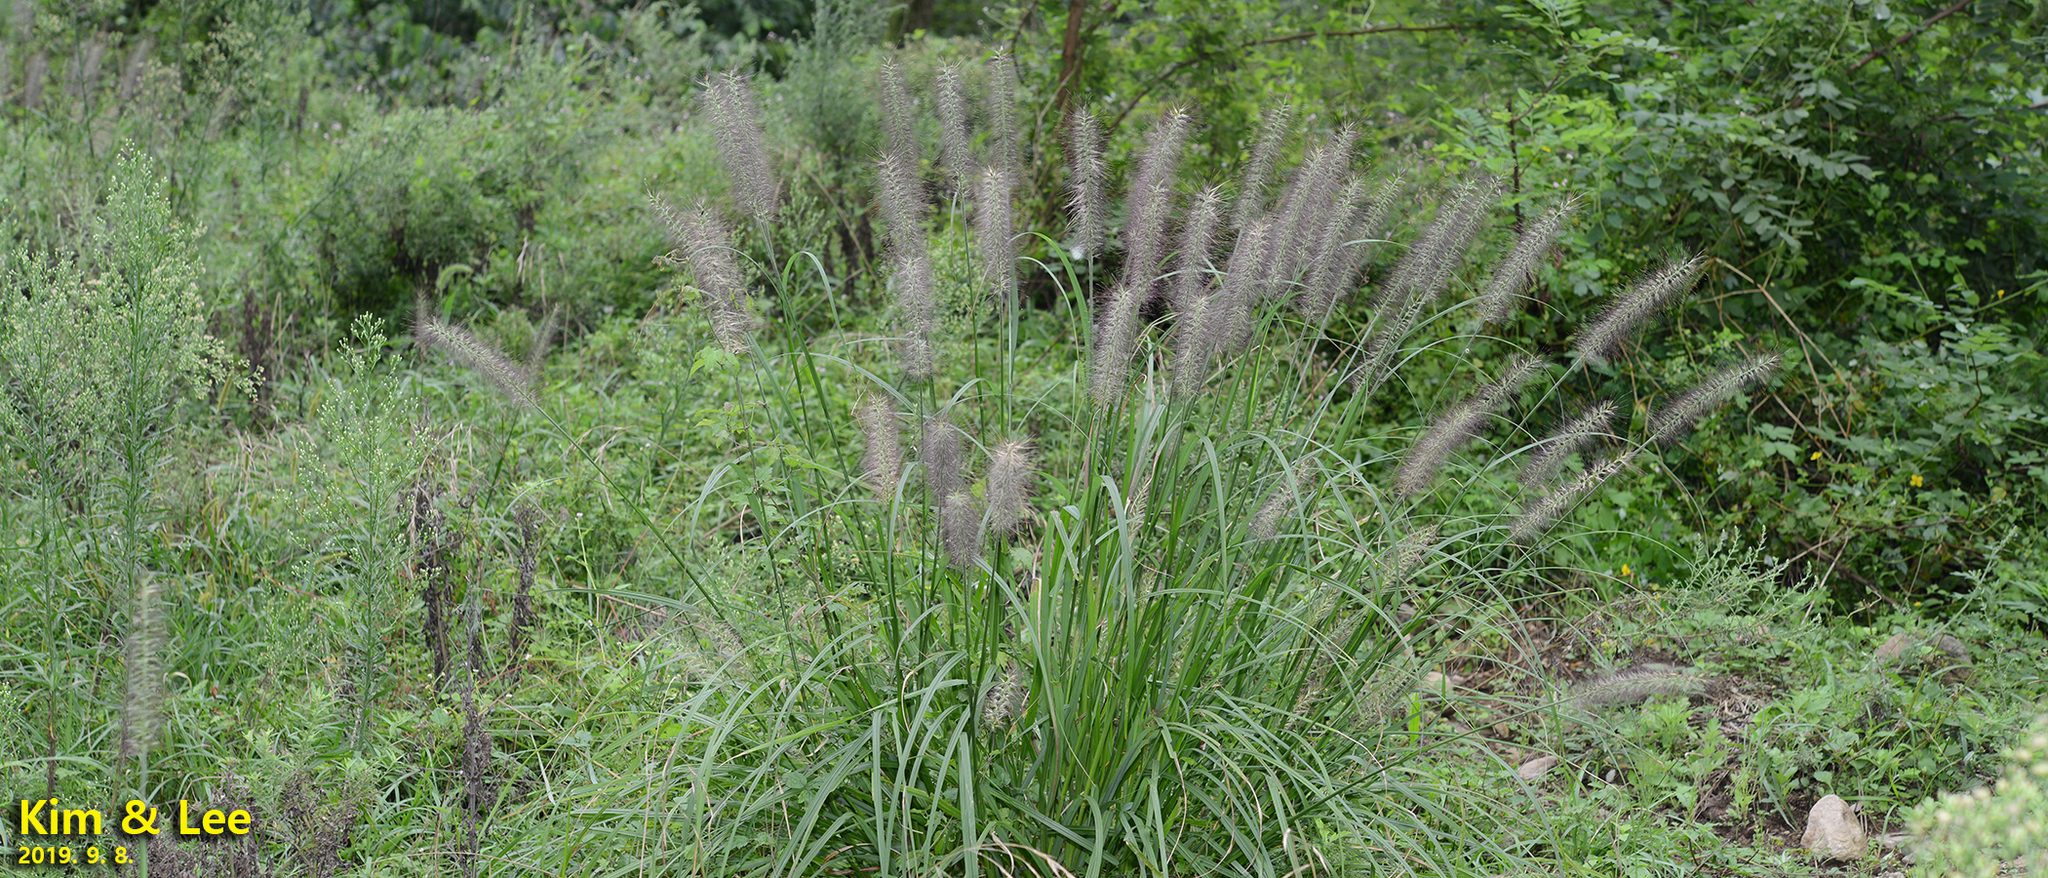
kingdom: Plantae
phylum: Tracheophyta
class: Liliopsida
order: Poales
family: Poaceae
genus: Cenchrus
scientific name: Cenchrus alopecuroides
